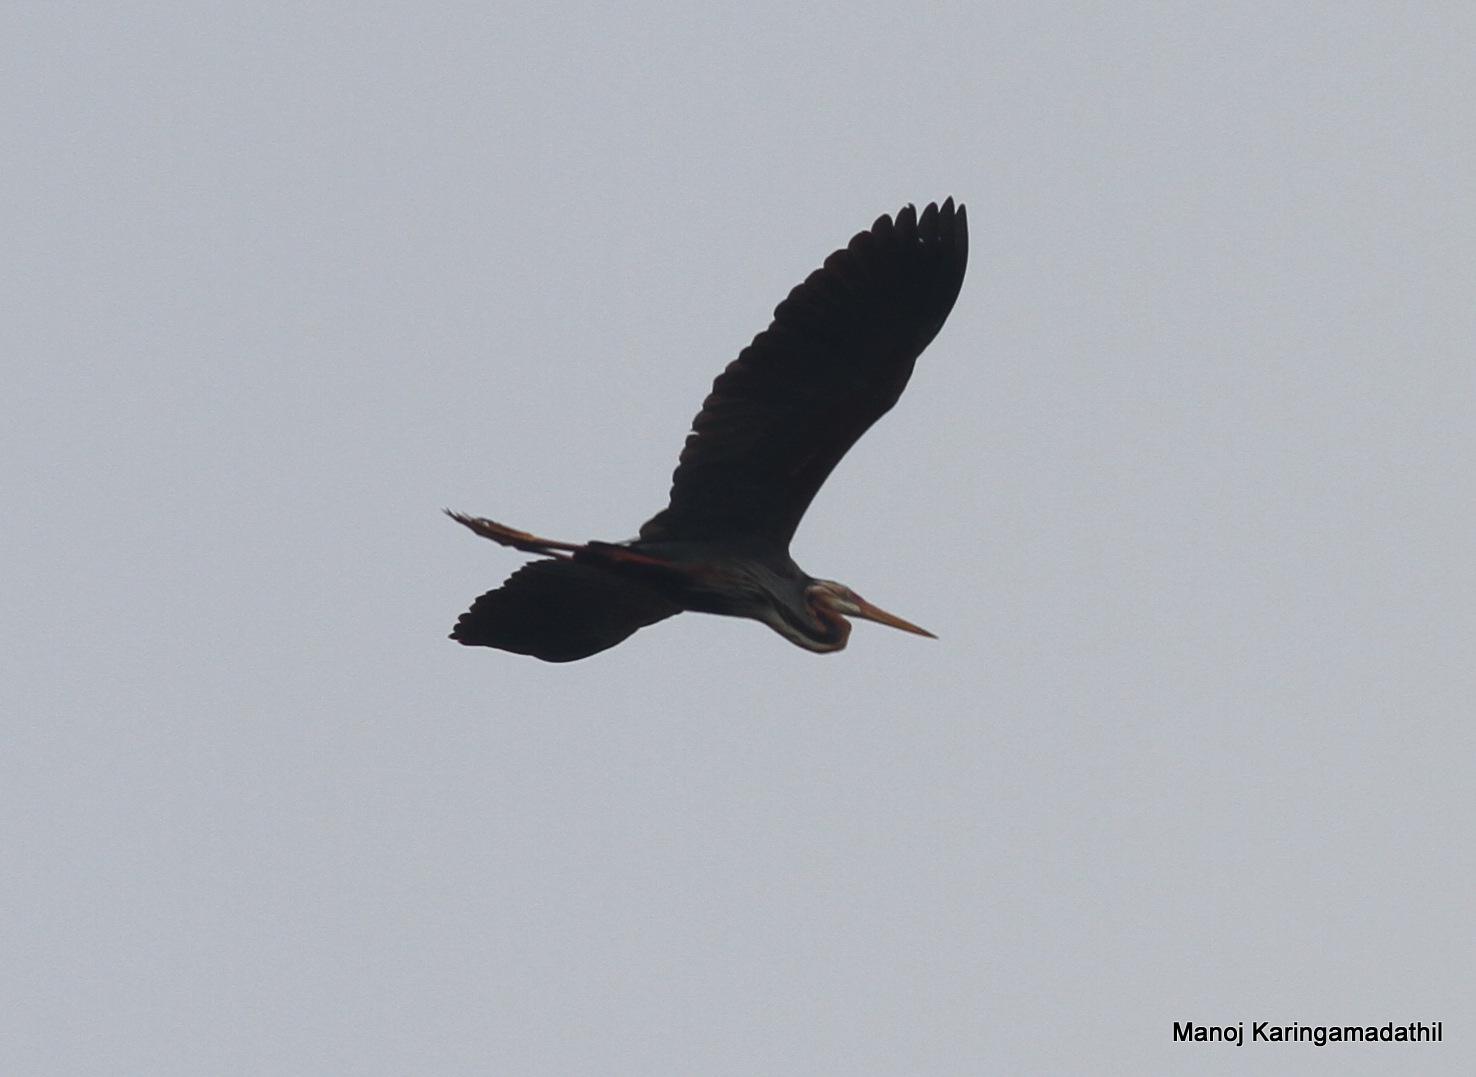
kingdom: Animalia
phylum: Chordata
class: Aves
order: Pelecaniformes
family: Ardeidae
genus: Ardea
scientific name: Ardea purpurea
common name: Purple heron
